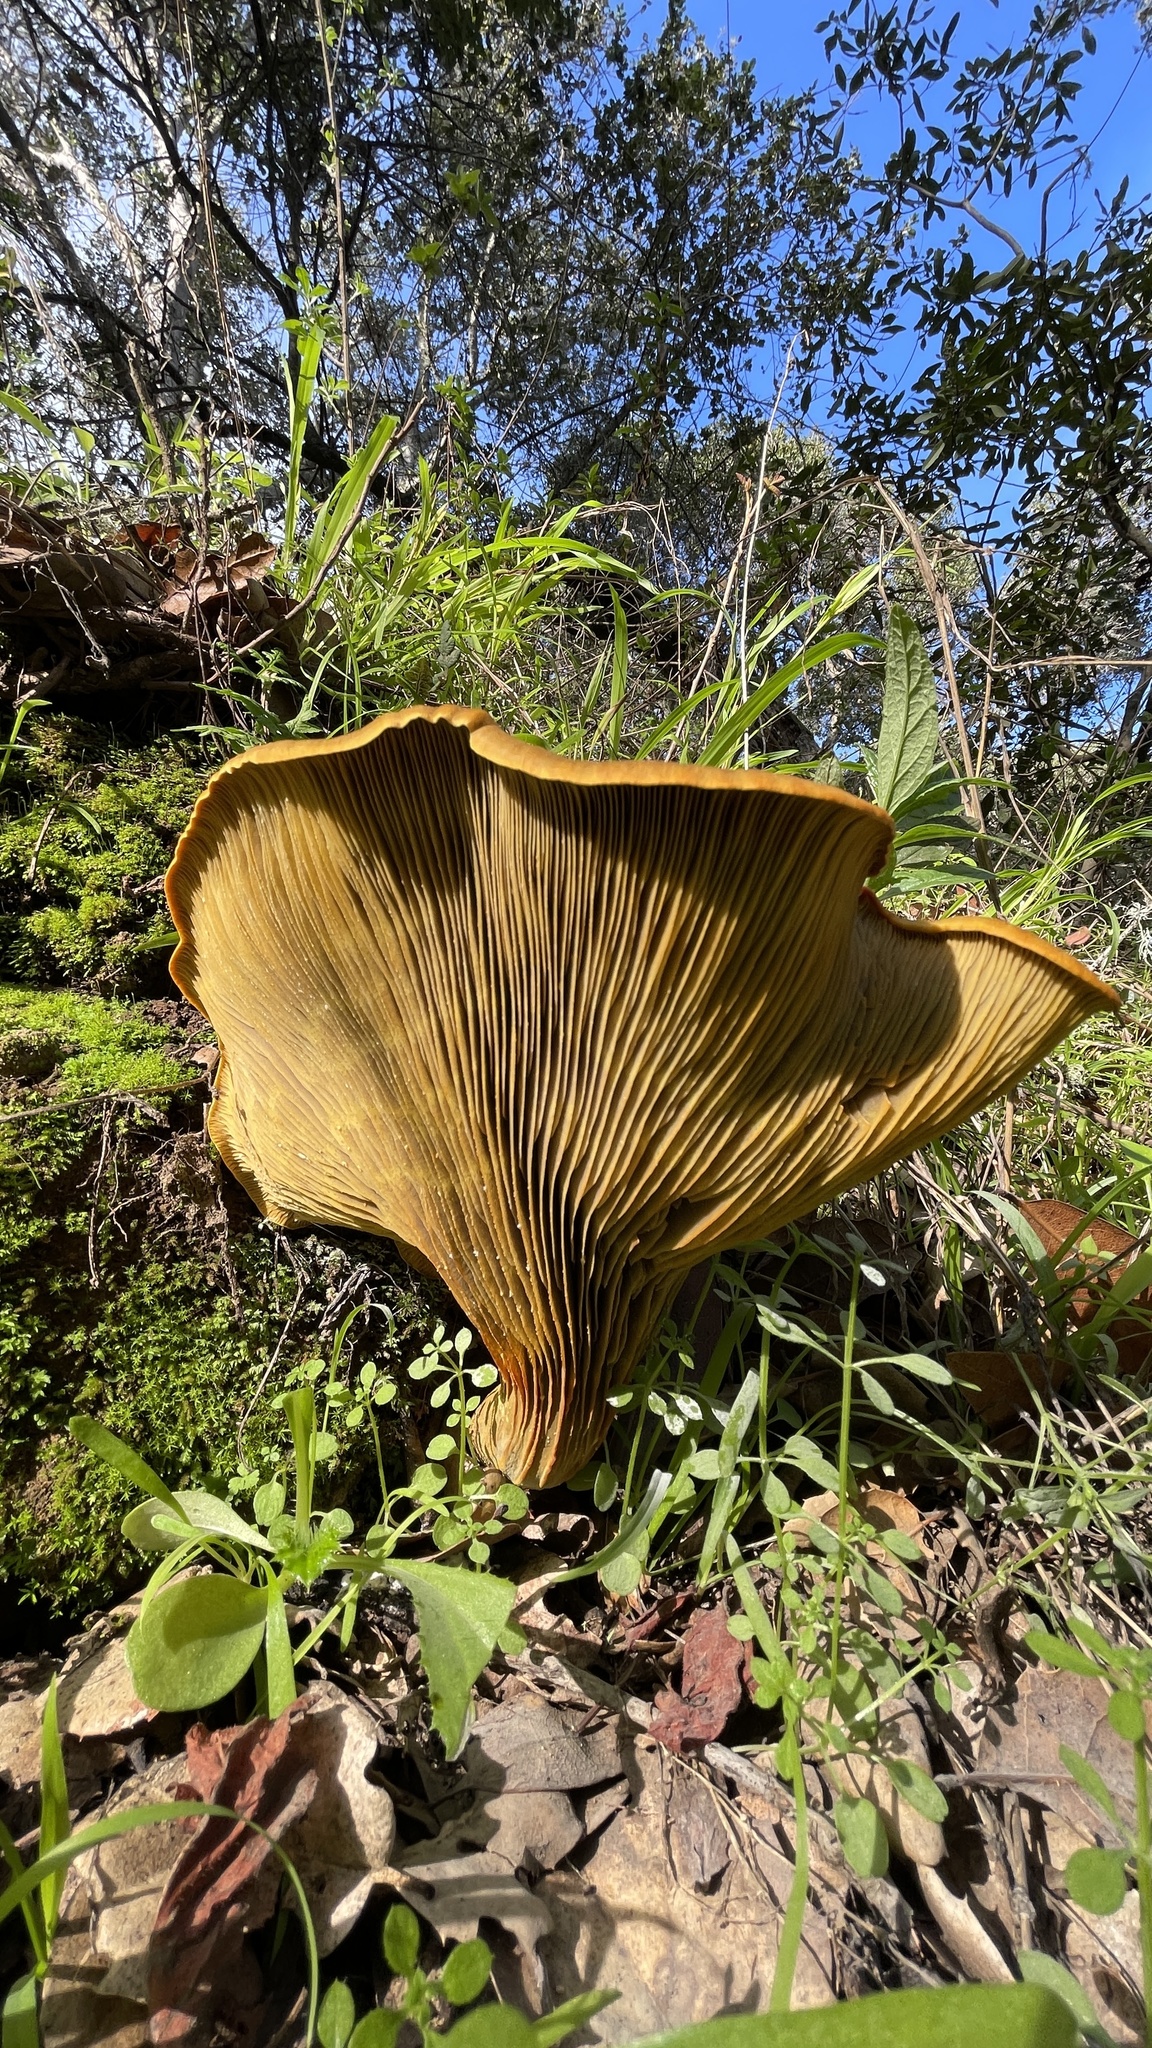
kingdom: Fungi
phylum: Basidiomycota
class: Agaricomycetes
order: Agaricales
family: Omphalotaceae
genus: Omphalotus
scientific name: Omphalotus olivascens
